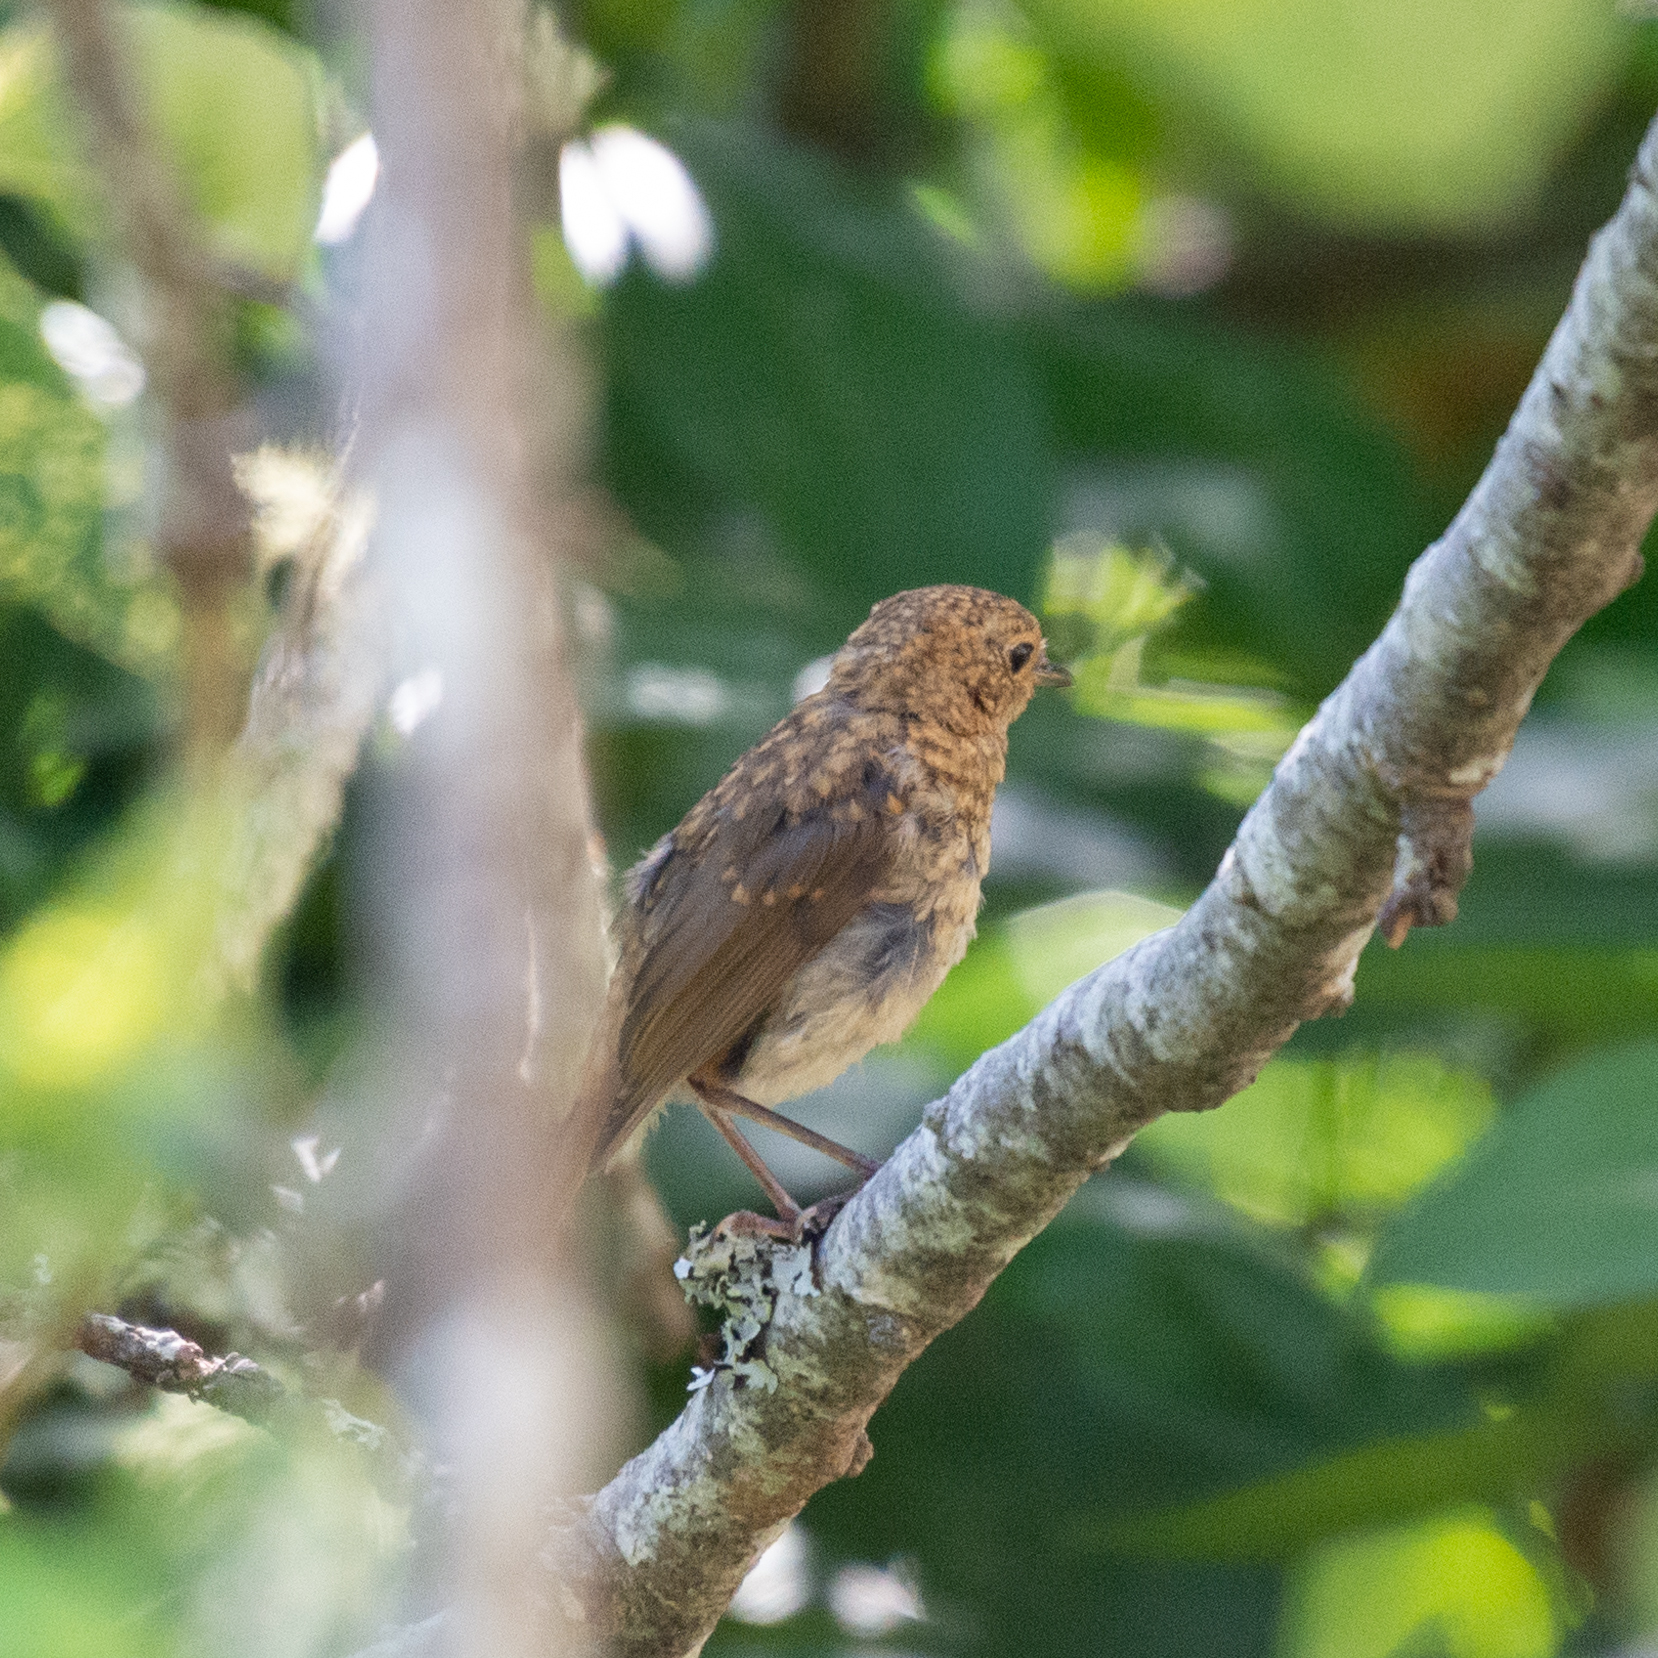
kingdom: Animalia
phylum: Chordata
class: Aves
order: Passeriformes
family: Muscicapidae
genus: Erithacus
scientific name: Erithacus rubecula
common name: European robin
